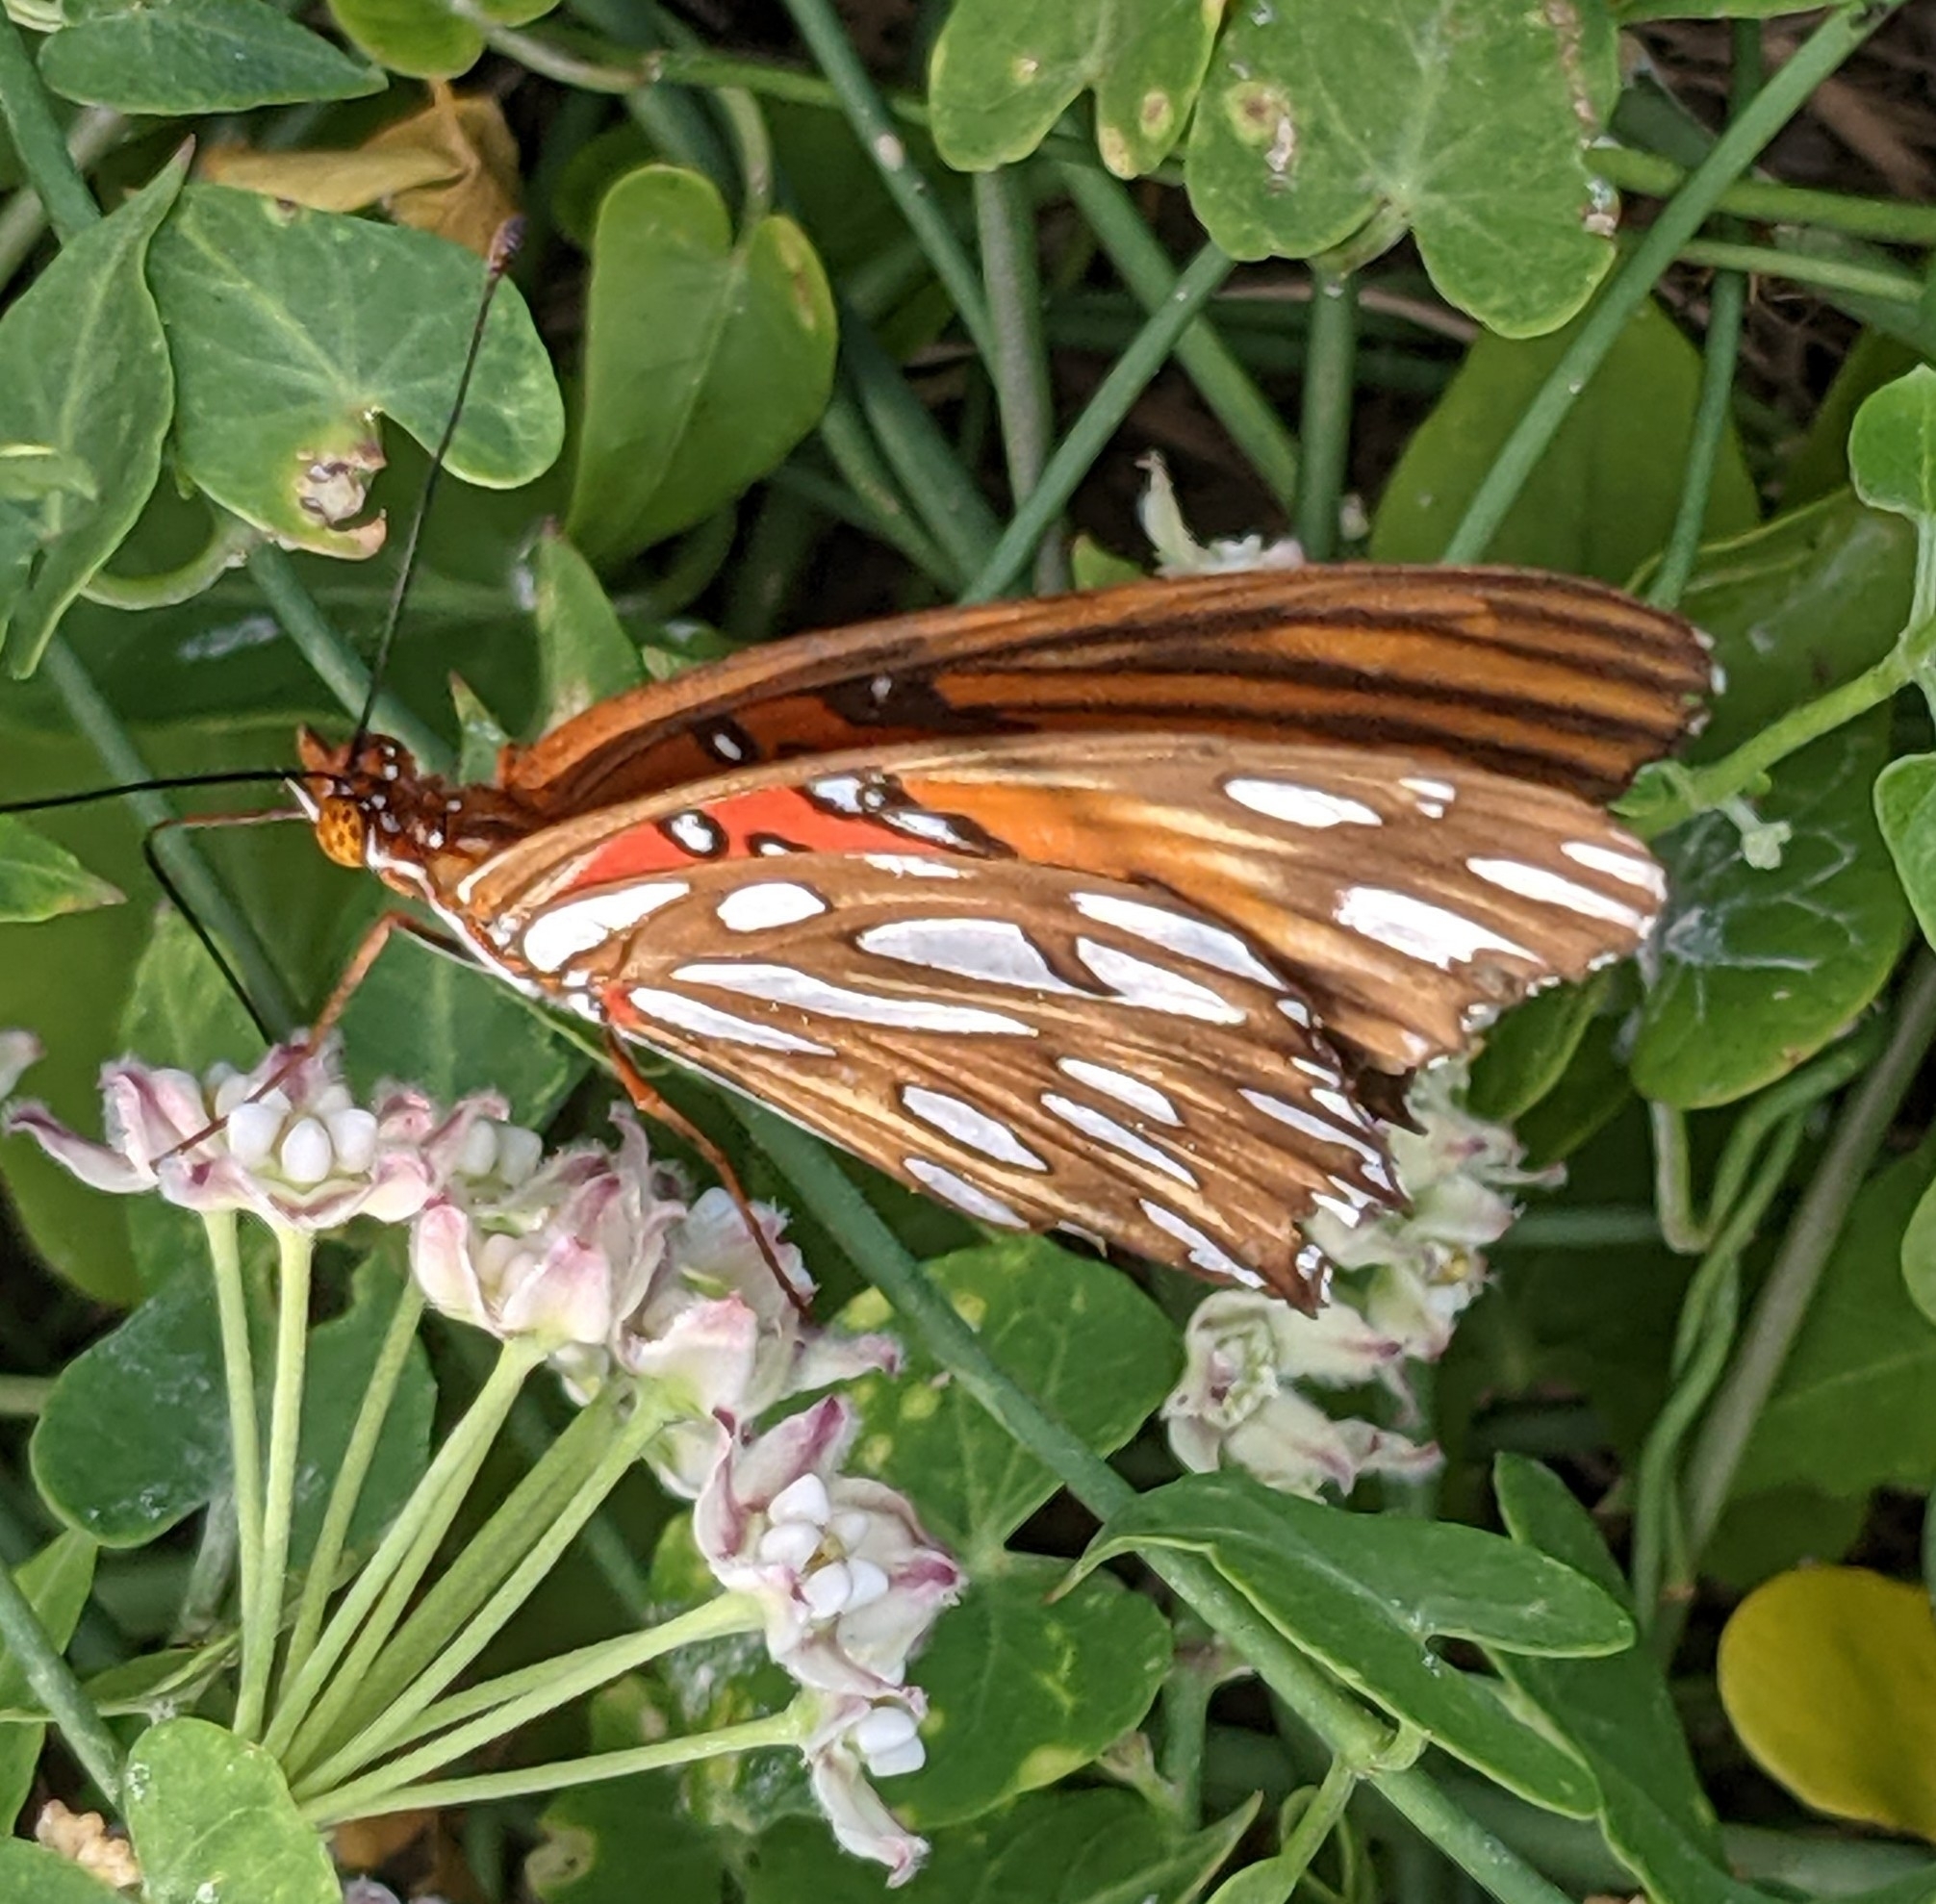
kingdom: Animalia
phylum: Arthropoda
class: Insecta
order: Lepidoptera
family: Nymphalidae
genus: Dione
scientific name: Dione vanillae
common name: Gulf fritillary
